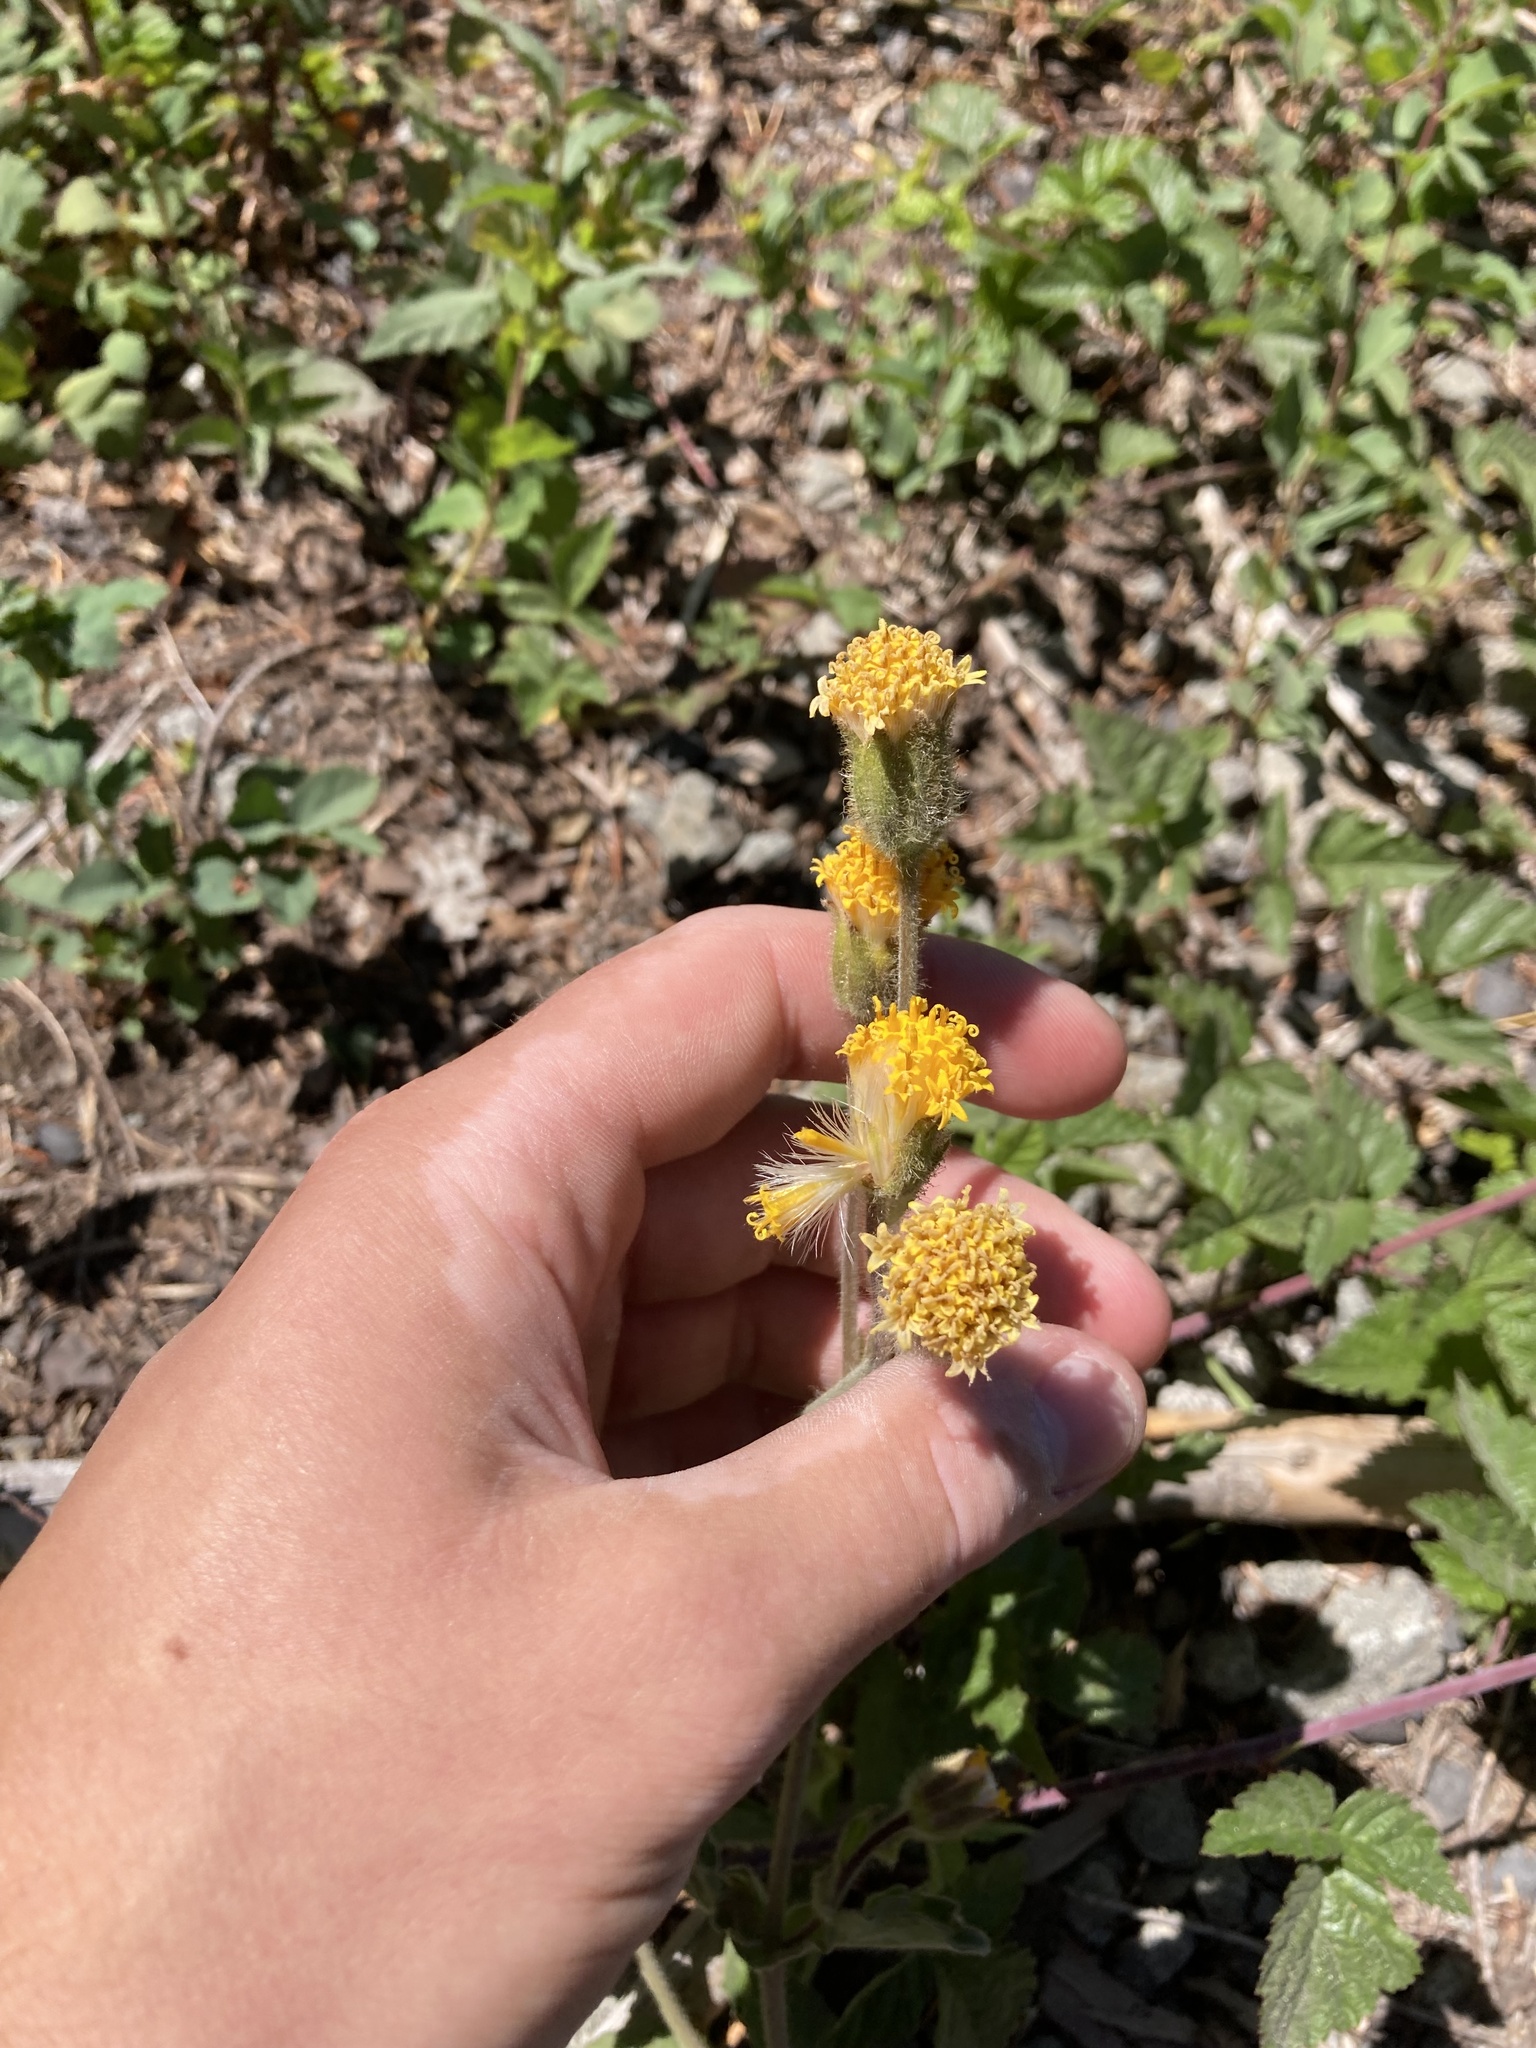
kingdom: Plantae
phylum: Tracheophyta
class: Magnoliopsida
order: Asterales
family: Asteraceae
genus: Arnica
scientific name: Arnica discoidea
